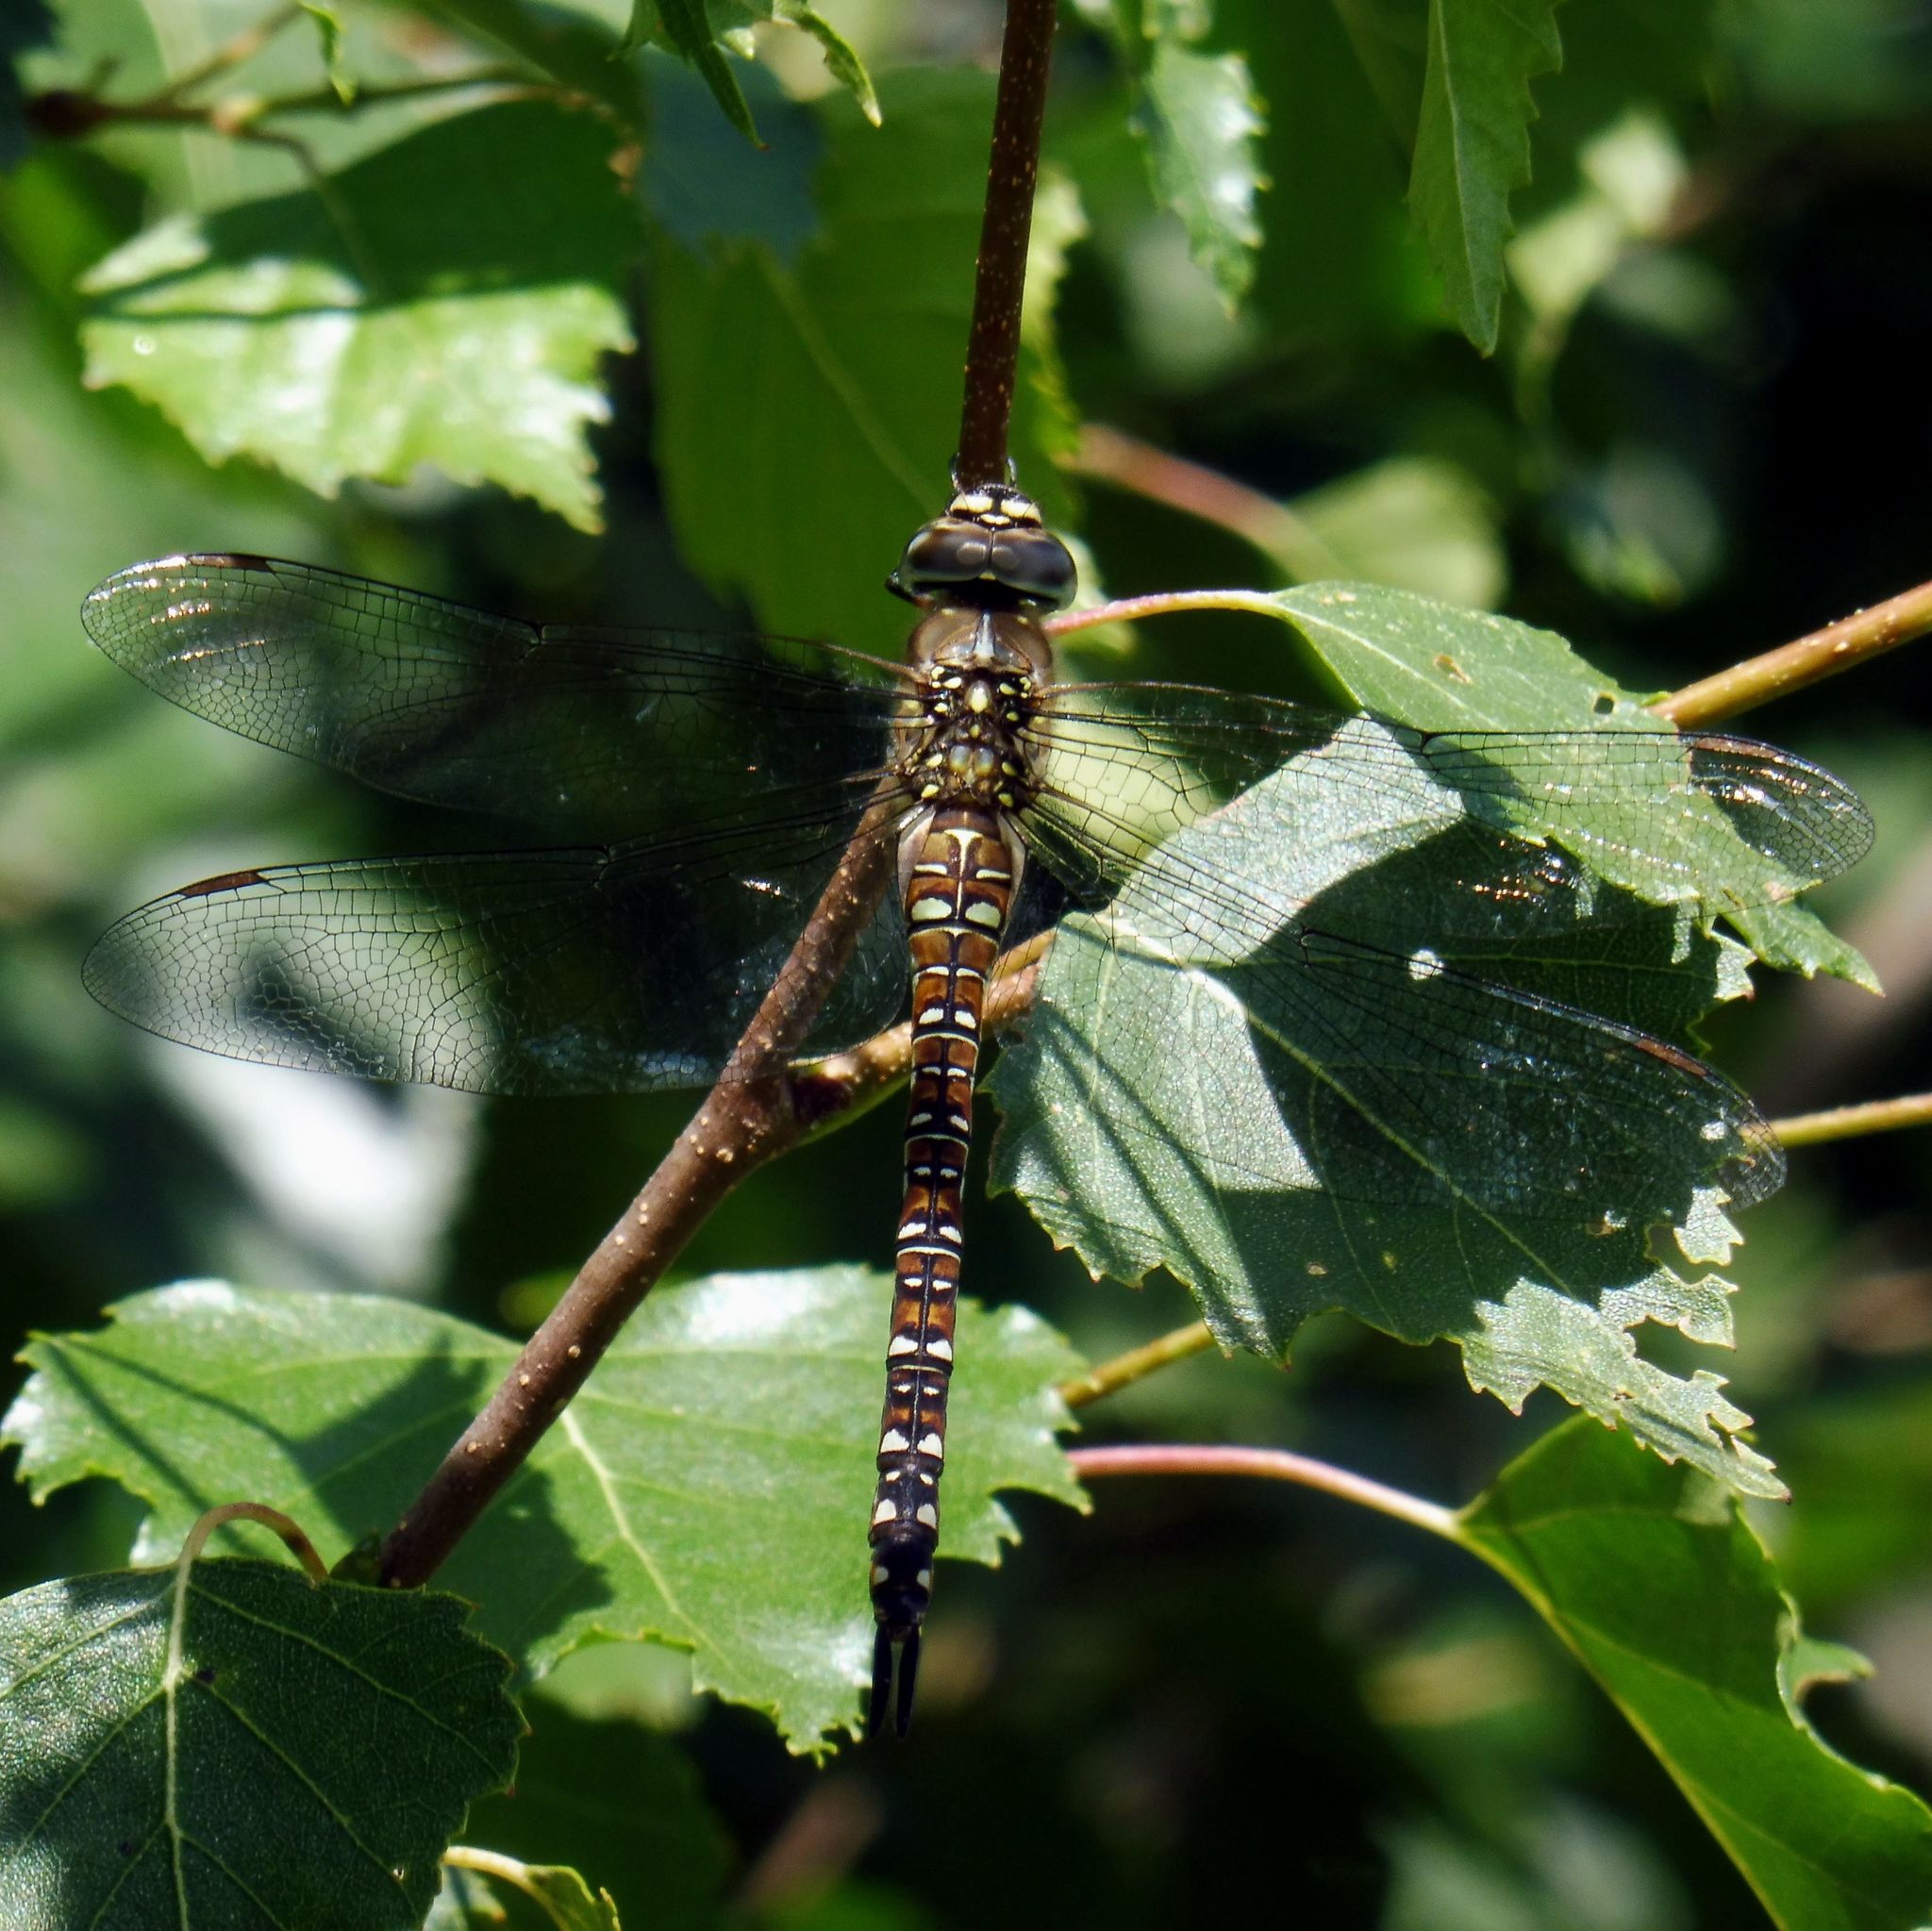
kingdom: Animalia
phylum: Arthropoda
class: Insecta
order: Odonata
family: Aeshnidae
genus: Aeshna
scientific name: Aeshna mixta
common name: Migrant hawker
